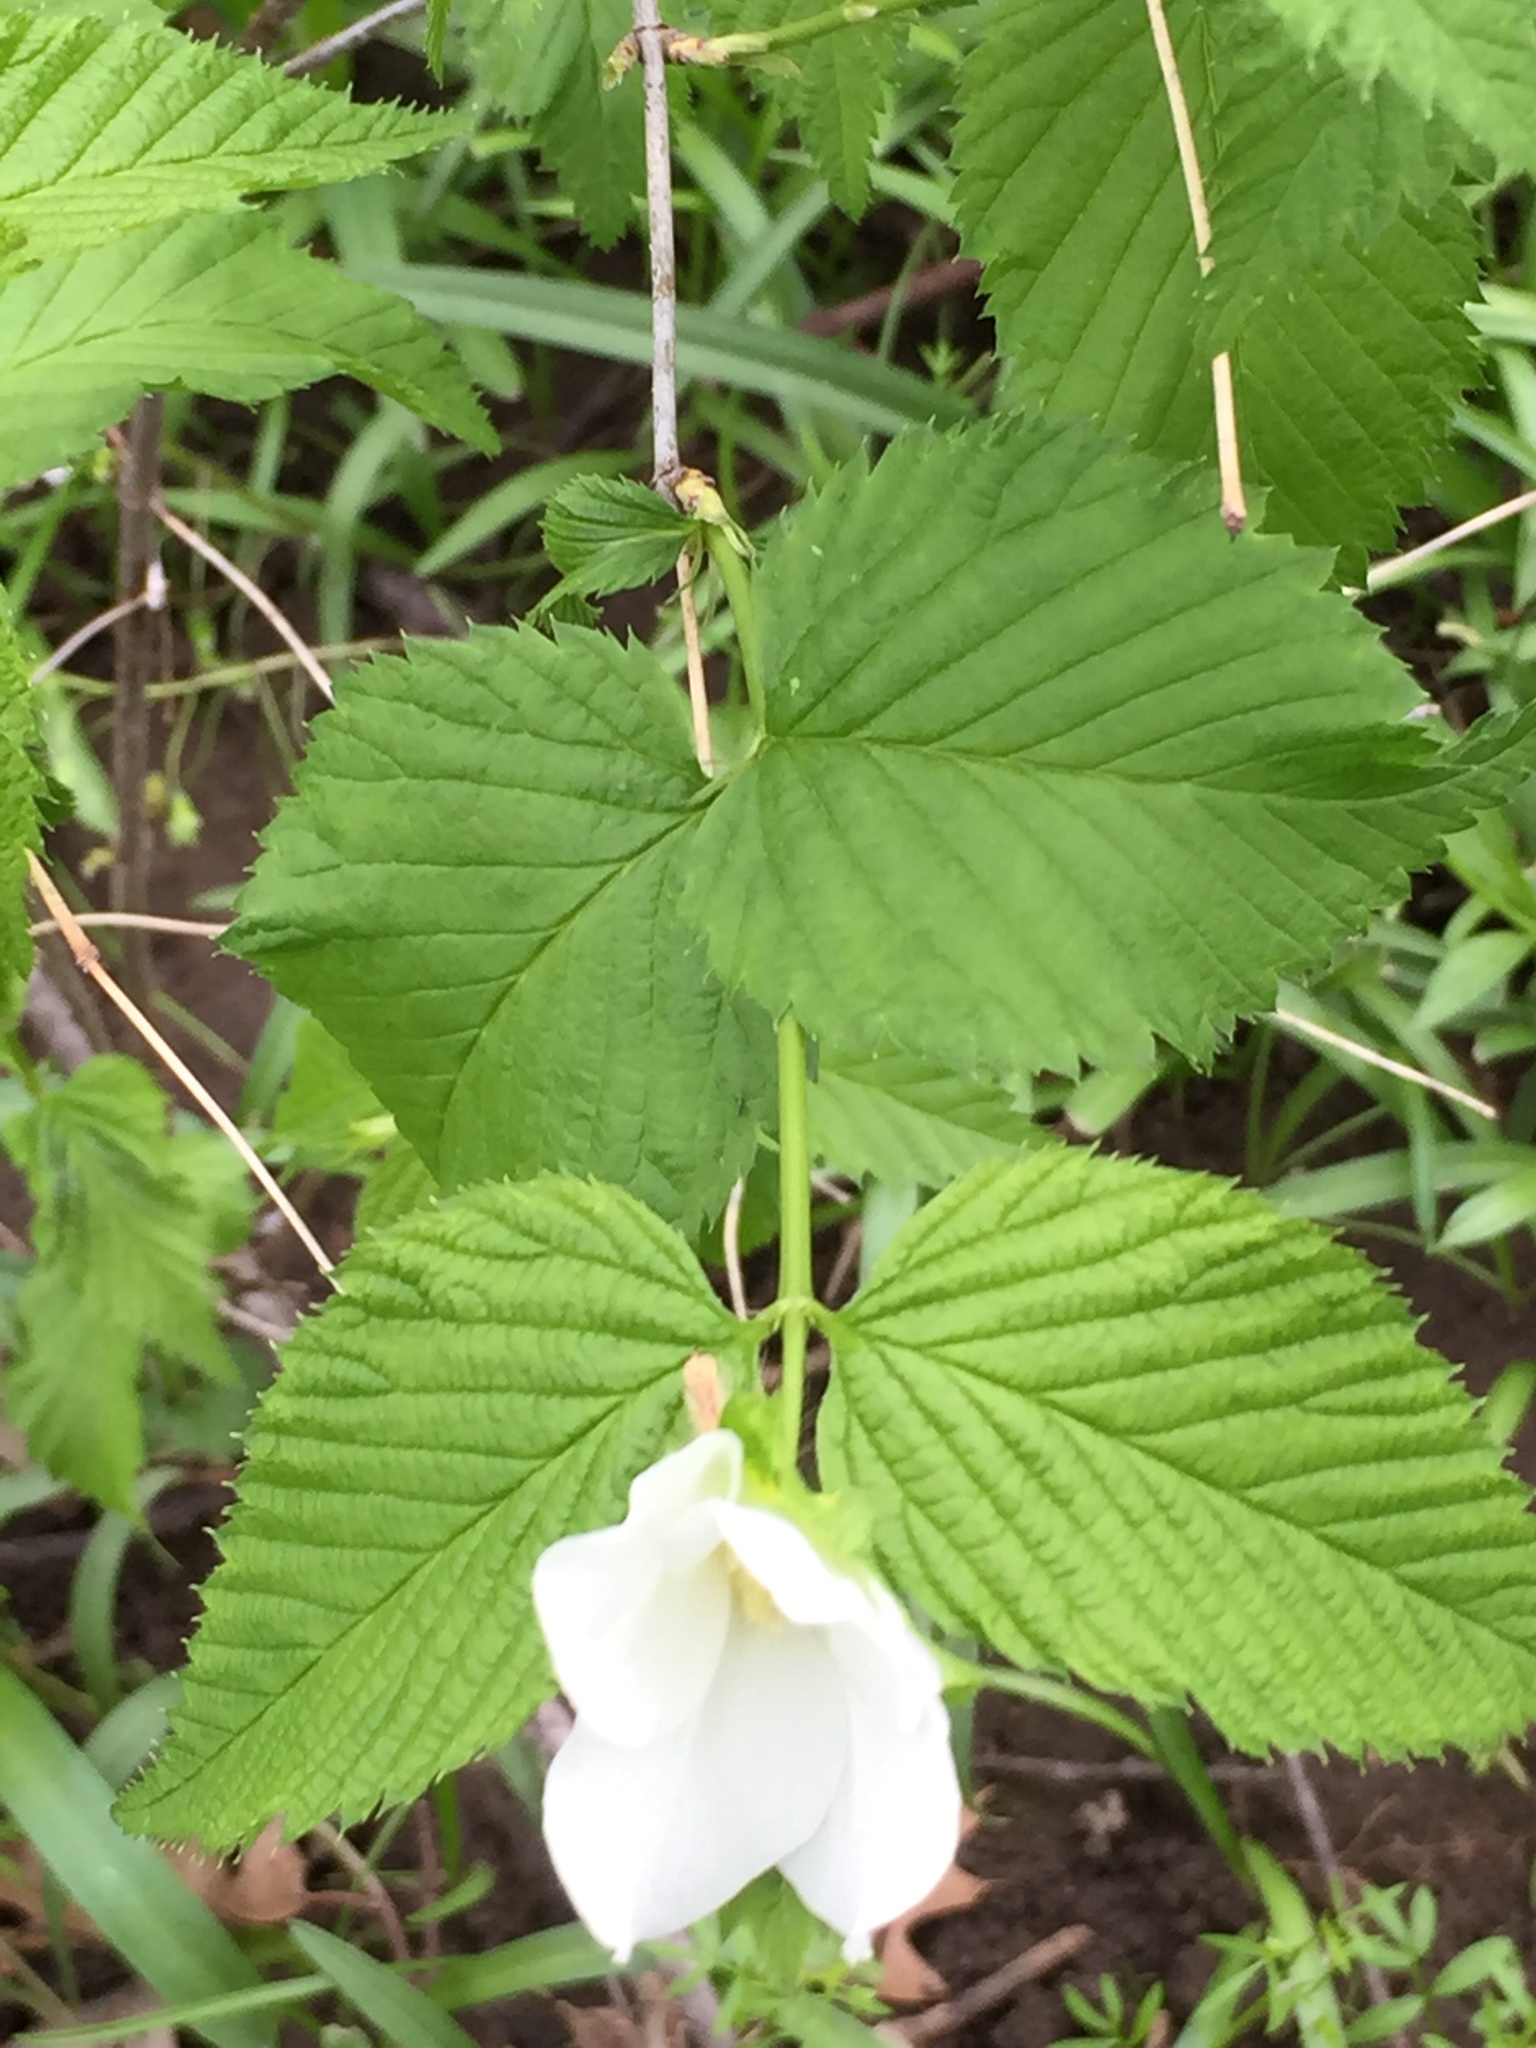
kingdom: Plantae
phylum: Tracheophyta
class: Magnoliopsida
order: Rosales
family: Rosaceae
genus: Rhodotypos
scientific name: Rhodotypos scandens
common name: Jetbead
